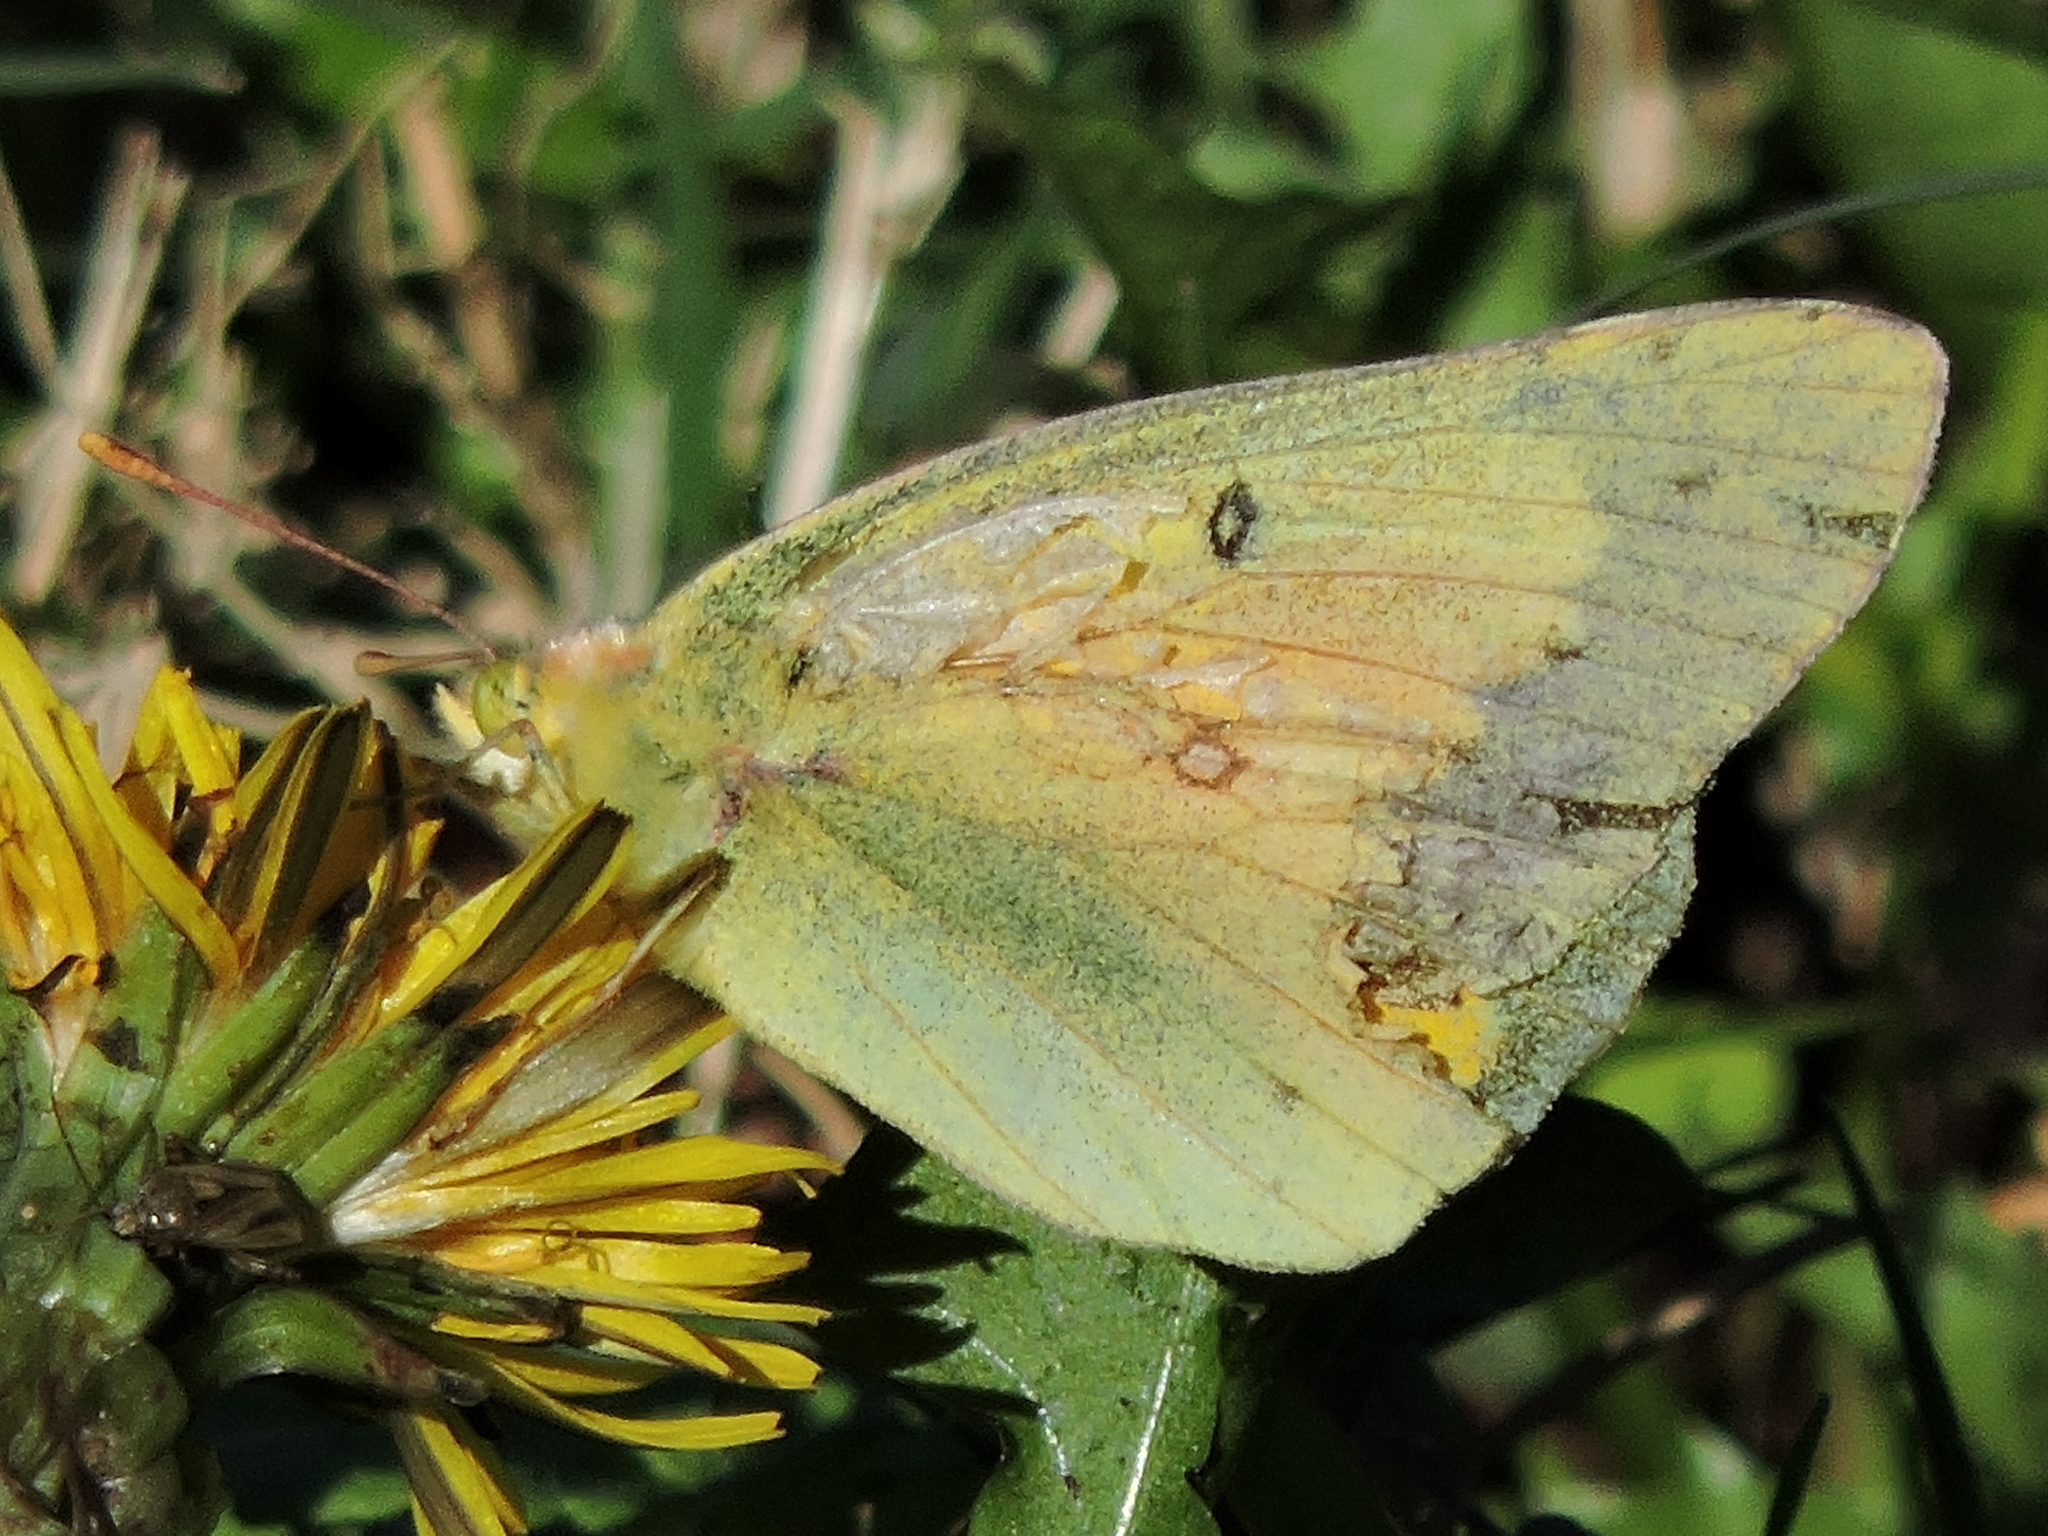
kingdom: Animalia
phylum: Arthropoda
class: Insecta
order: Lepidoptera
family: Pieridae
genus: Colias
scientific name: Colias eurytheme
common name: Alfalfa butterfly
